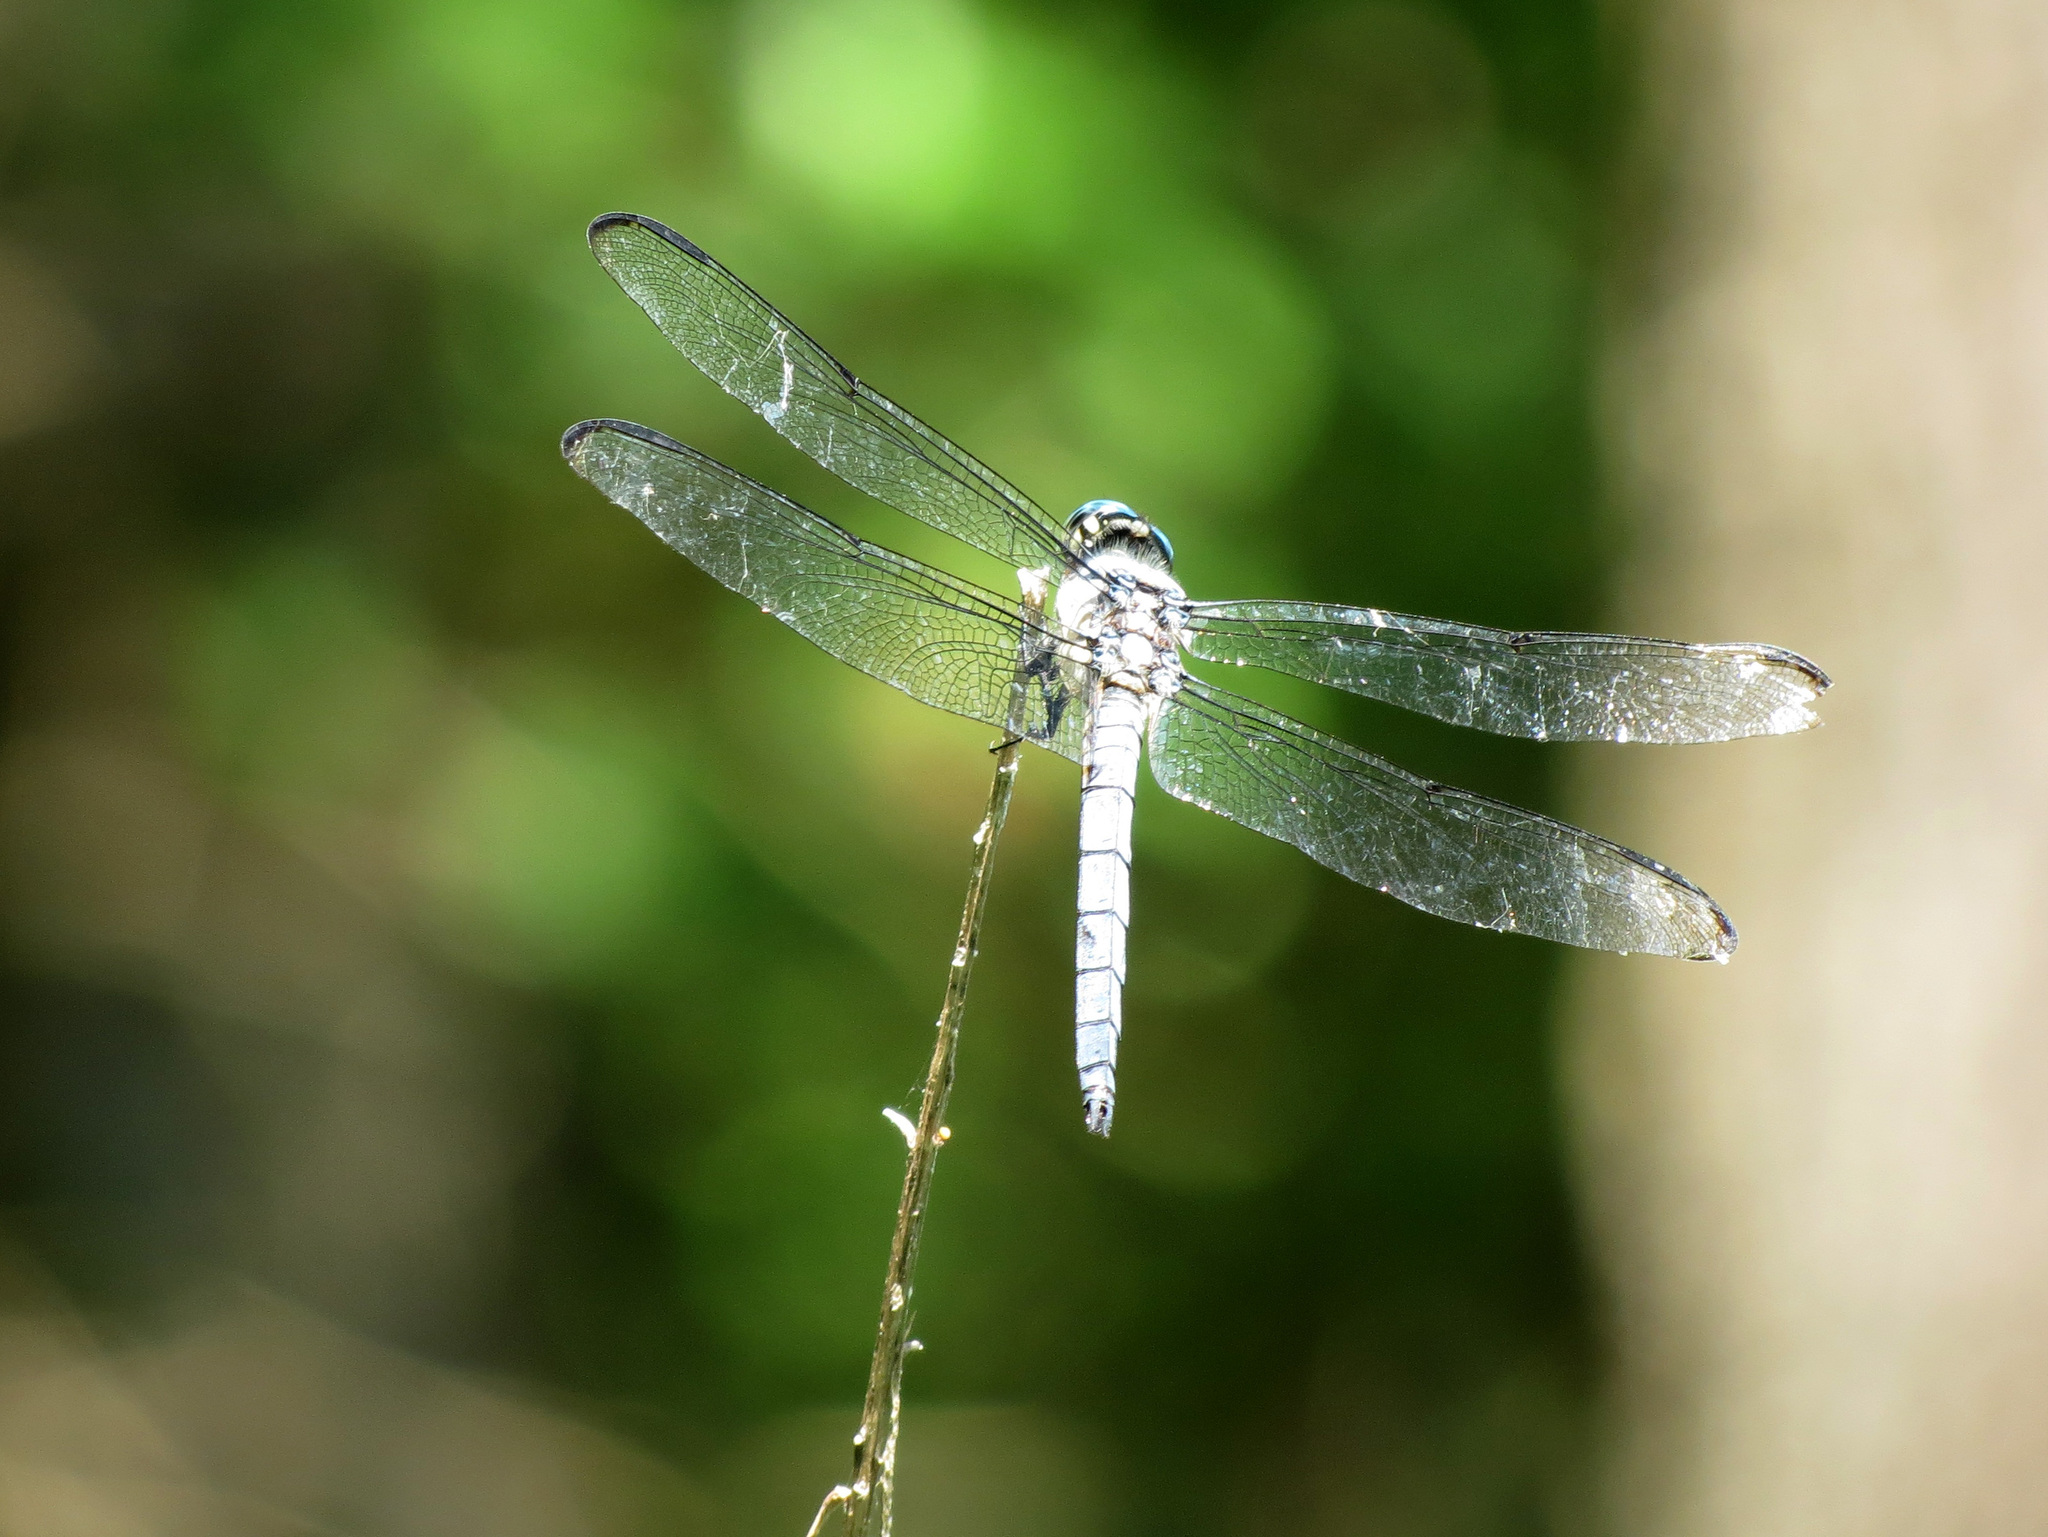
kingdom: Animalia
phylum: Arthropoda
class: Insecta
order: Odonata
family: Libellulidae
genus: Libellula
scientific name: Libellula vibrans
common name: Great blue skimmer
